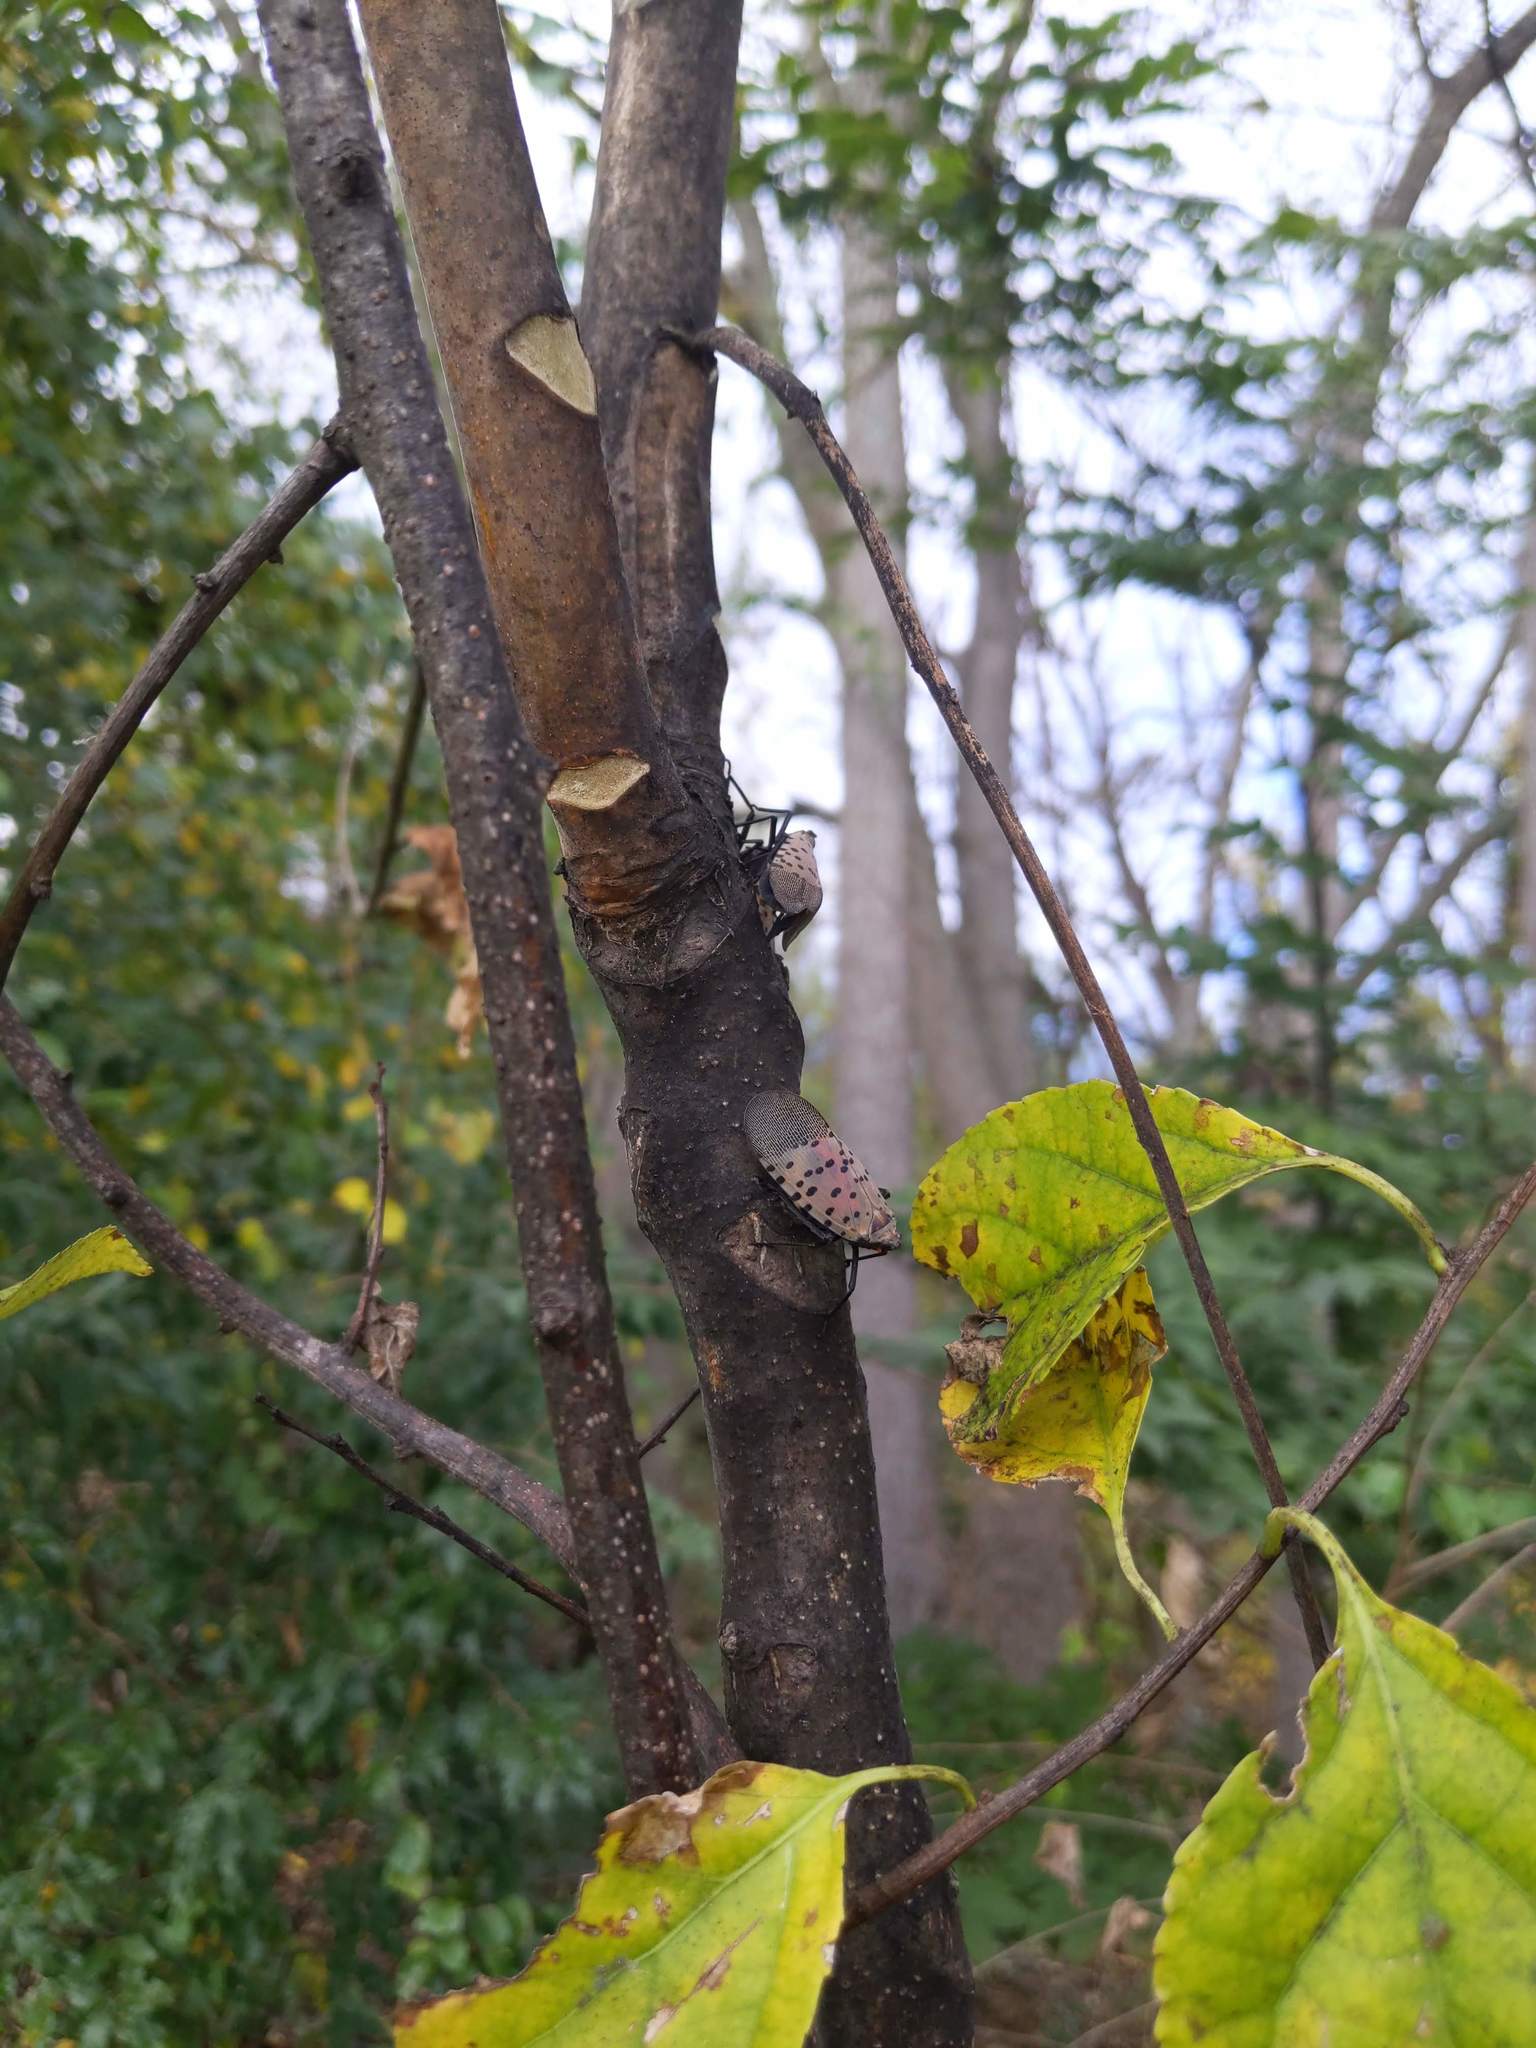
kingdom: Animalia
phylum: Arthropoda
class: Insecta
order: Hemiptera
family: Fulgoridae
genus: Lycorma
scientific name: Lycorma delicatula
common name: Spotted lanternfly
